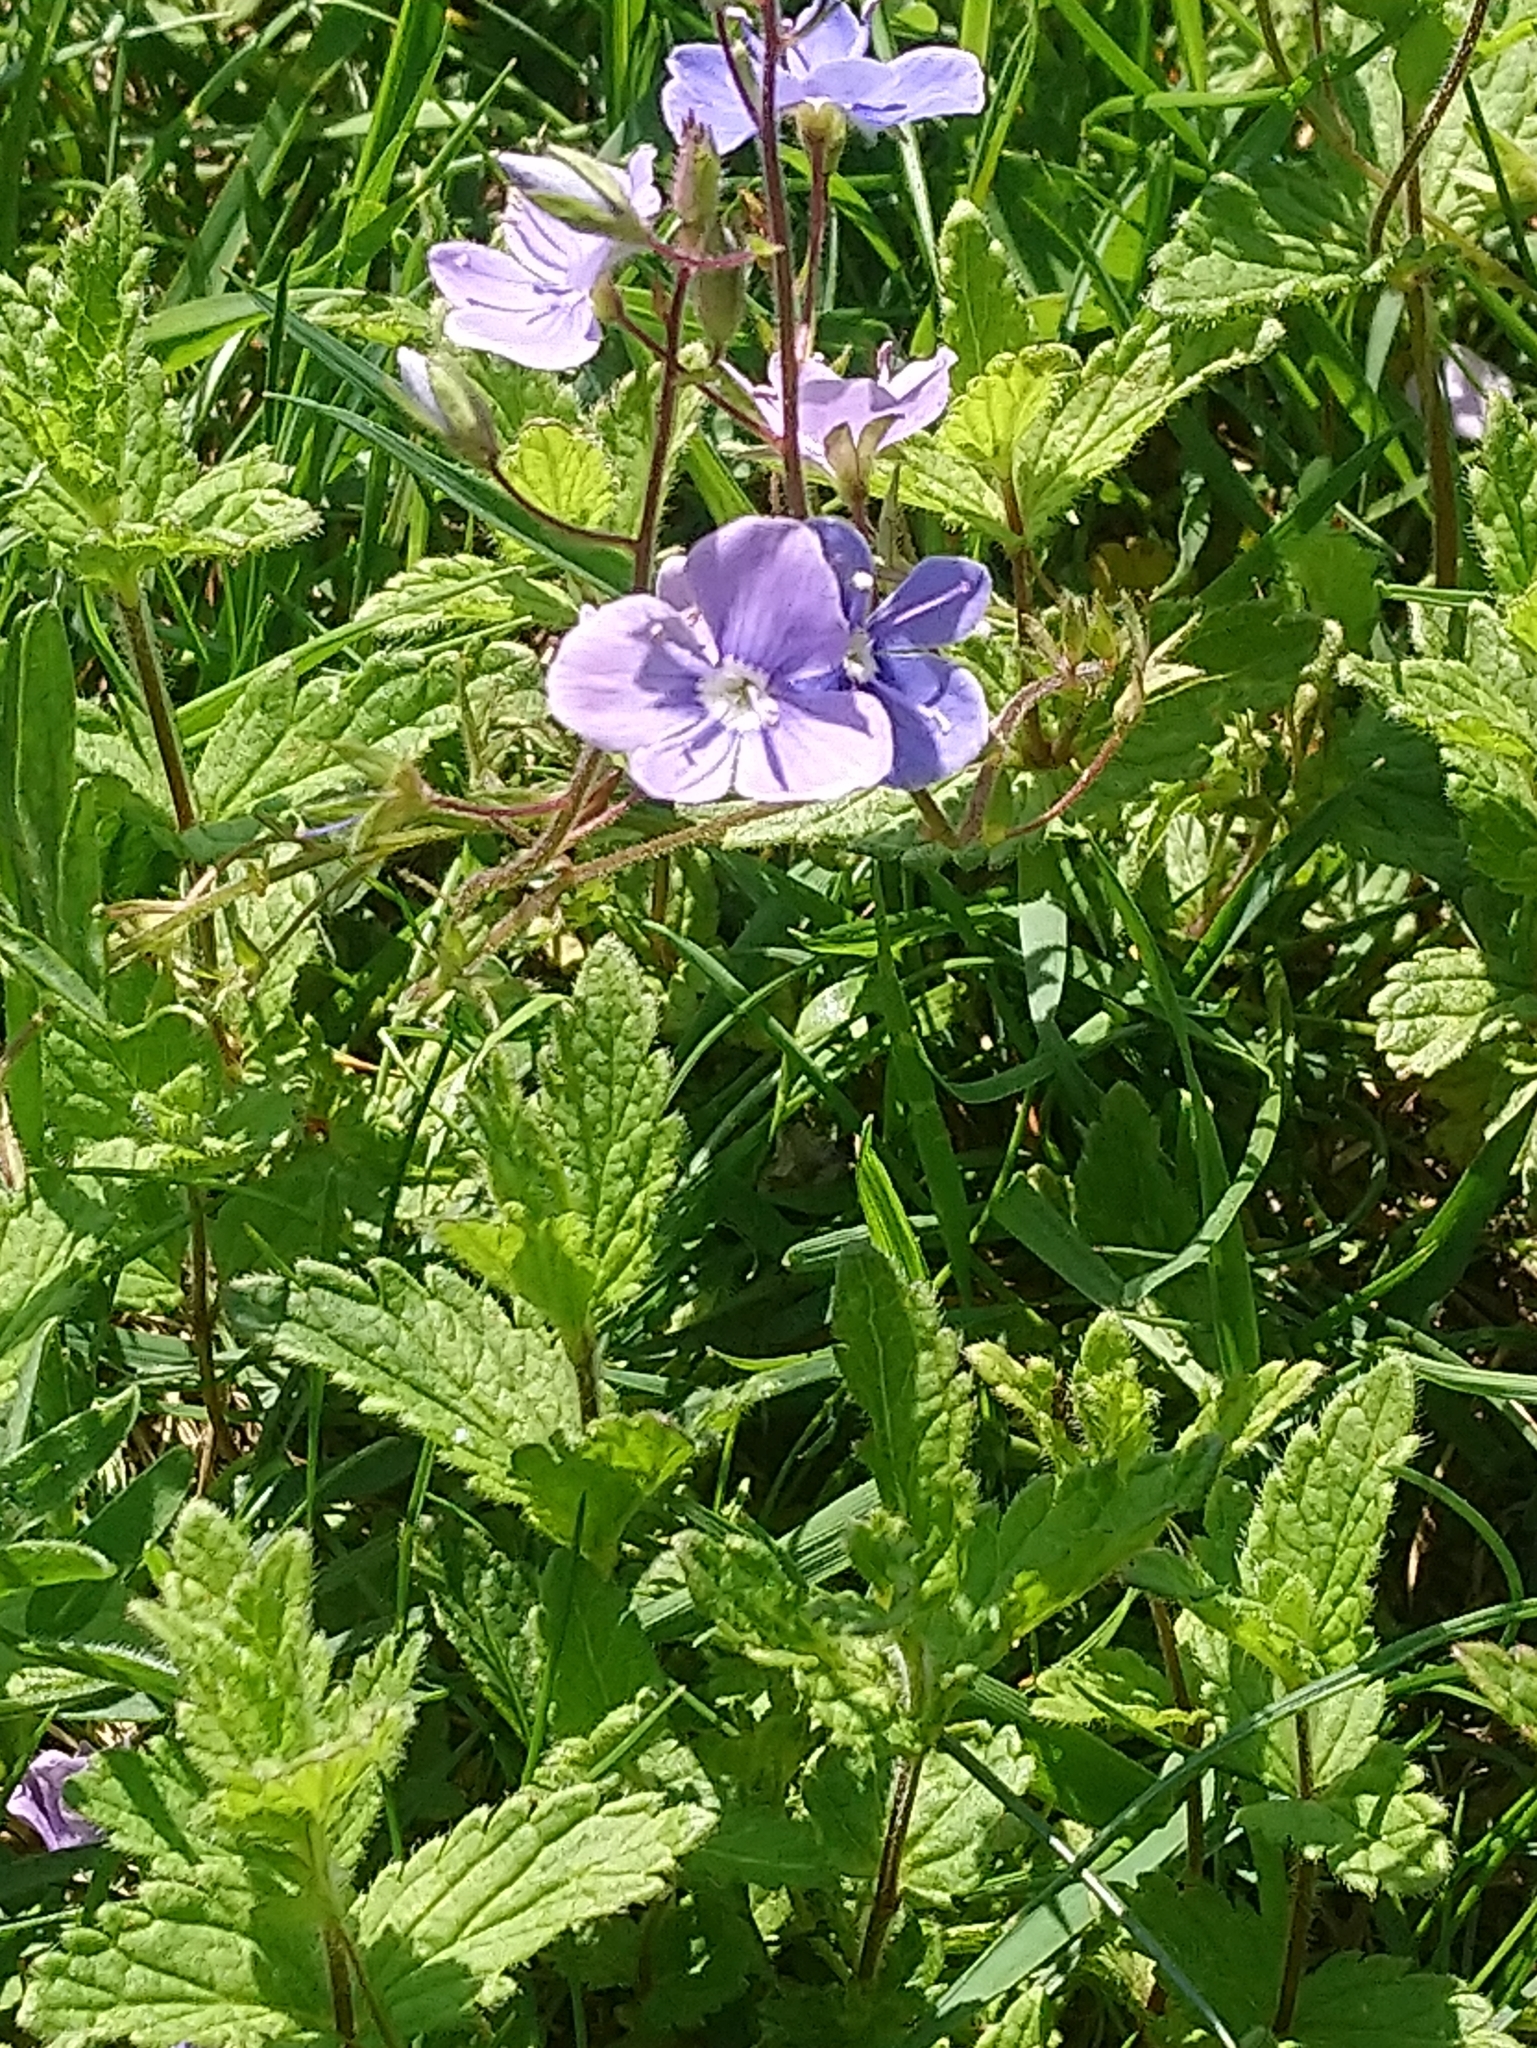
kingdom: Plantae
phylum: Tracheophyta
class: Magnoliopsida
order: Lamiales
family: Plantaginaceae
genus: Veronica
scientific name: Veronica chamaedrys
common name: Germander speedwell
